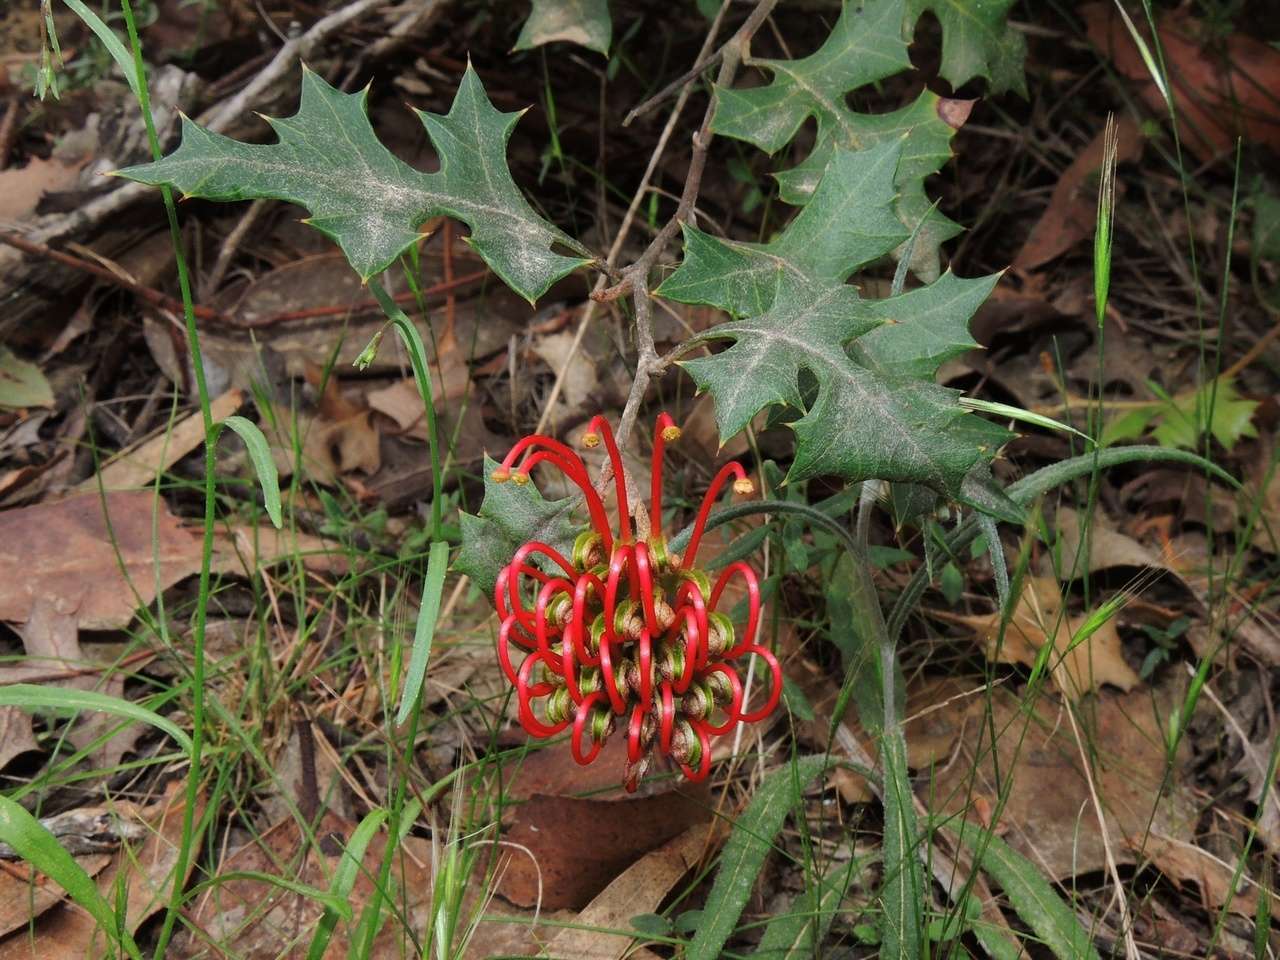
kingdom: Plantae
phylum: Tracheophyta
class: Magnoliopsida
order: Proteales
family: Proteaceae
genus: Grevillea
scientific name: Grevillea steiglitziana
